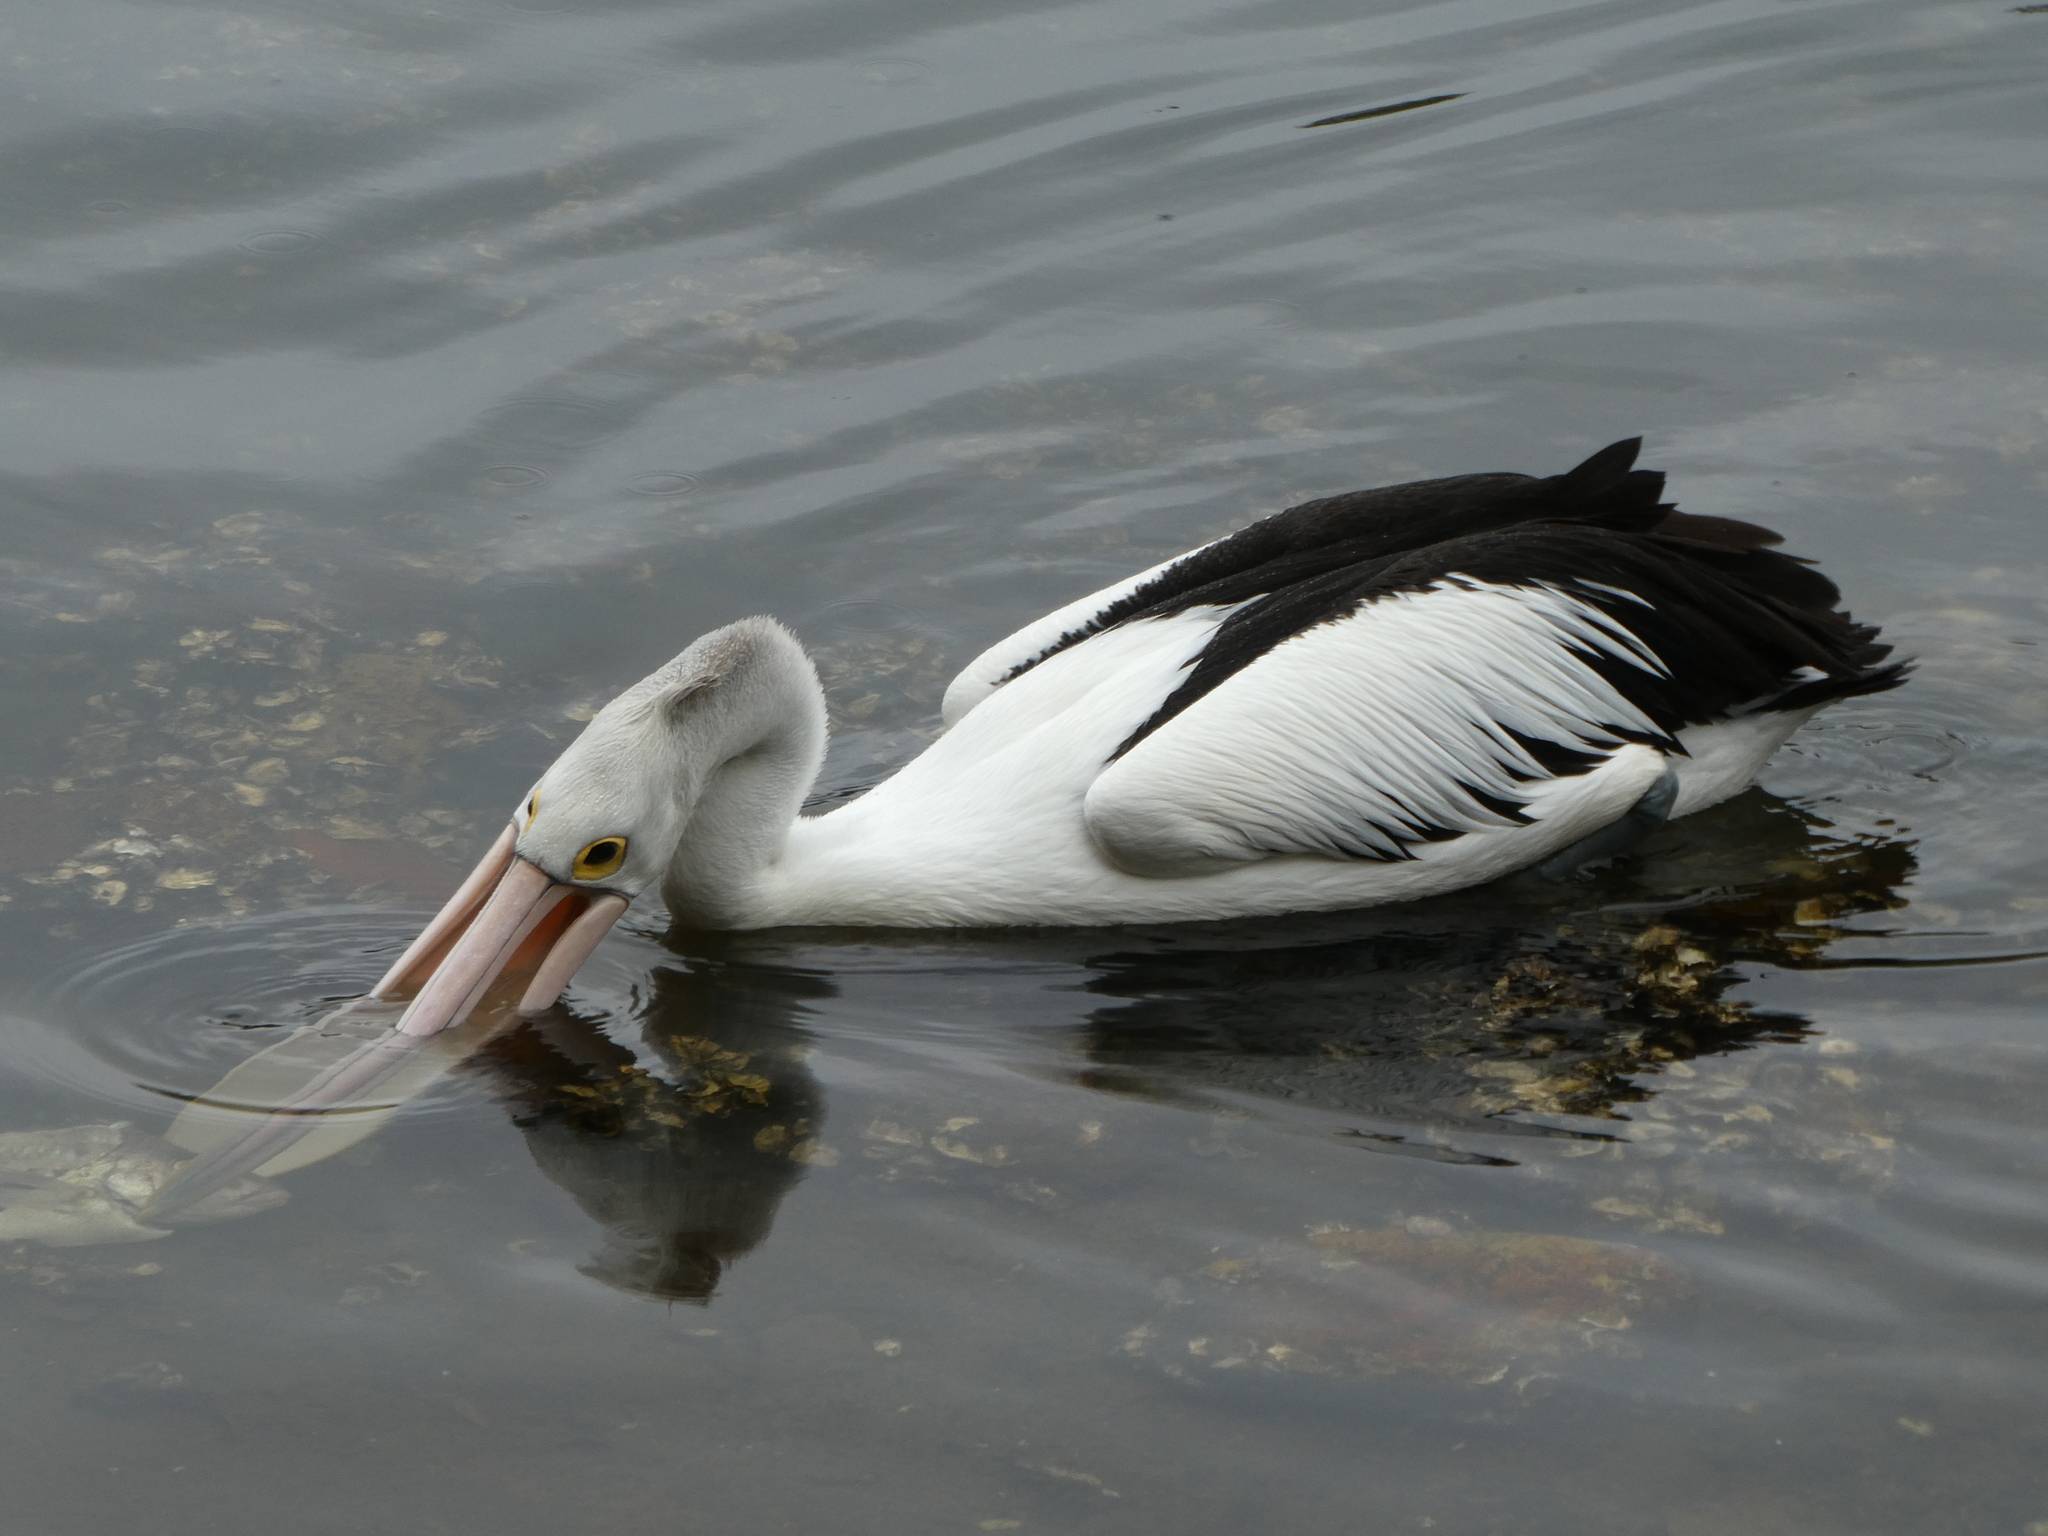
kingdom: Animalia
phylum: Chordata
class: Aves
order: Pelecaniformes
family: Pelecanidae
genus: Pelecanus
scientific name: Pelecanus conspicillatus
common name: Australian pelican
